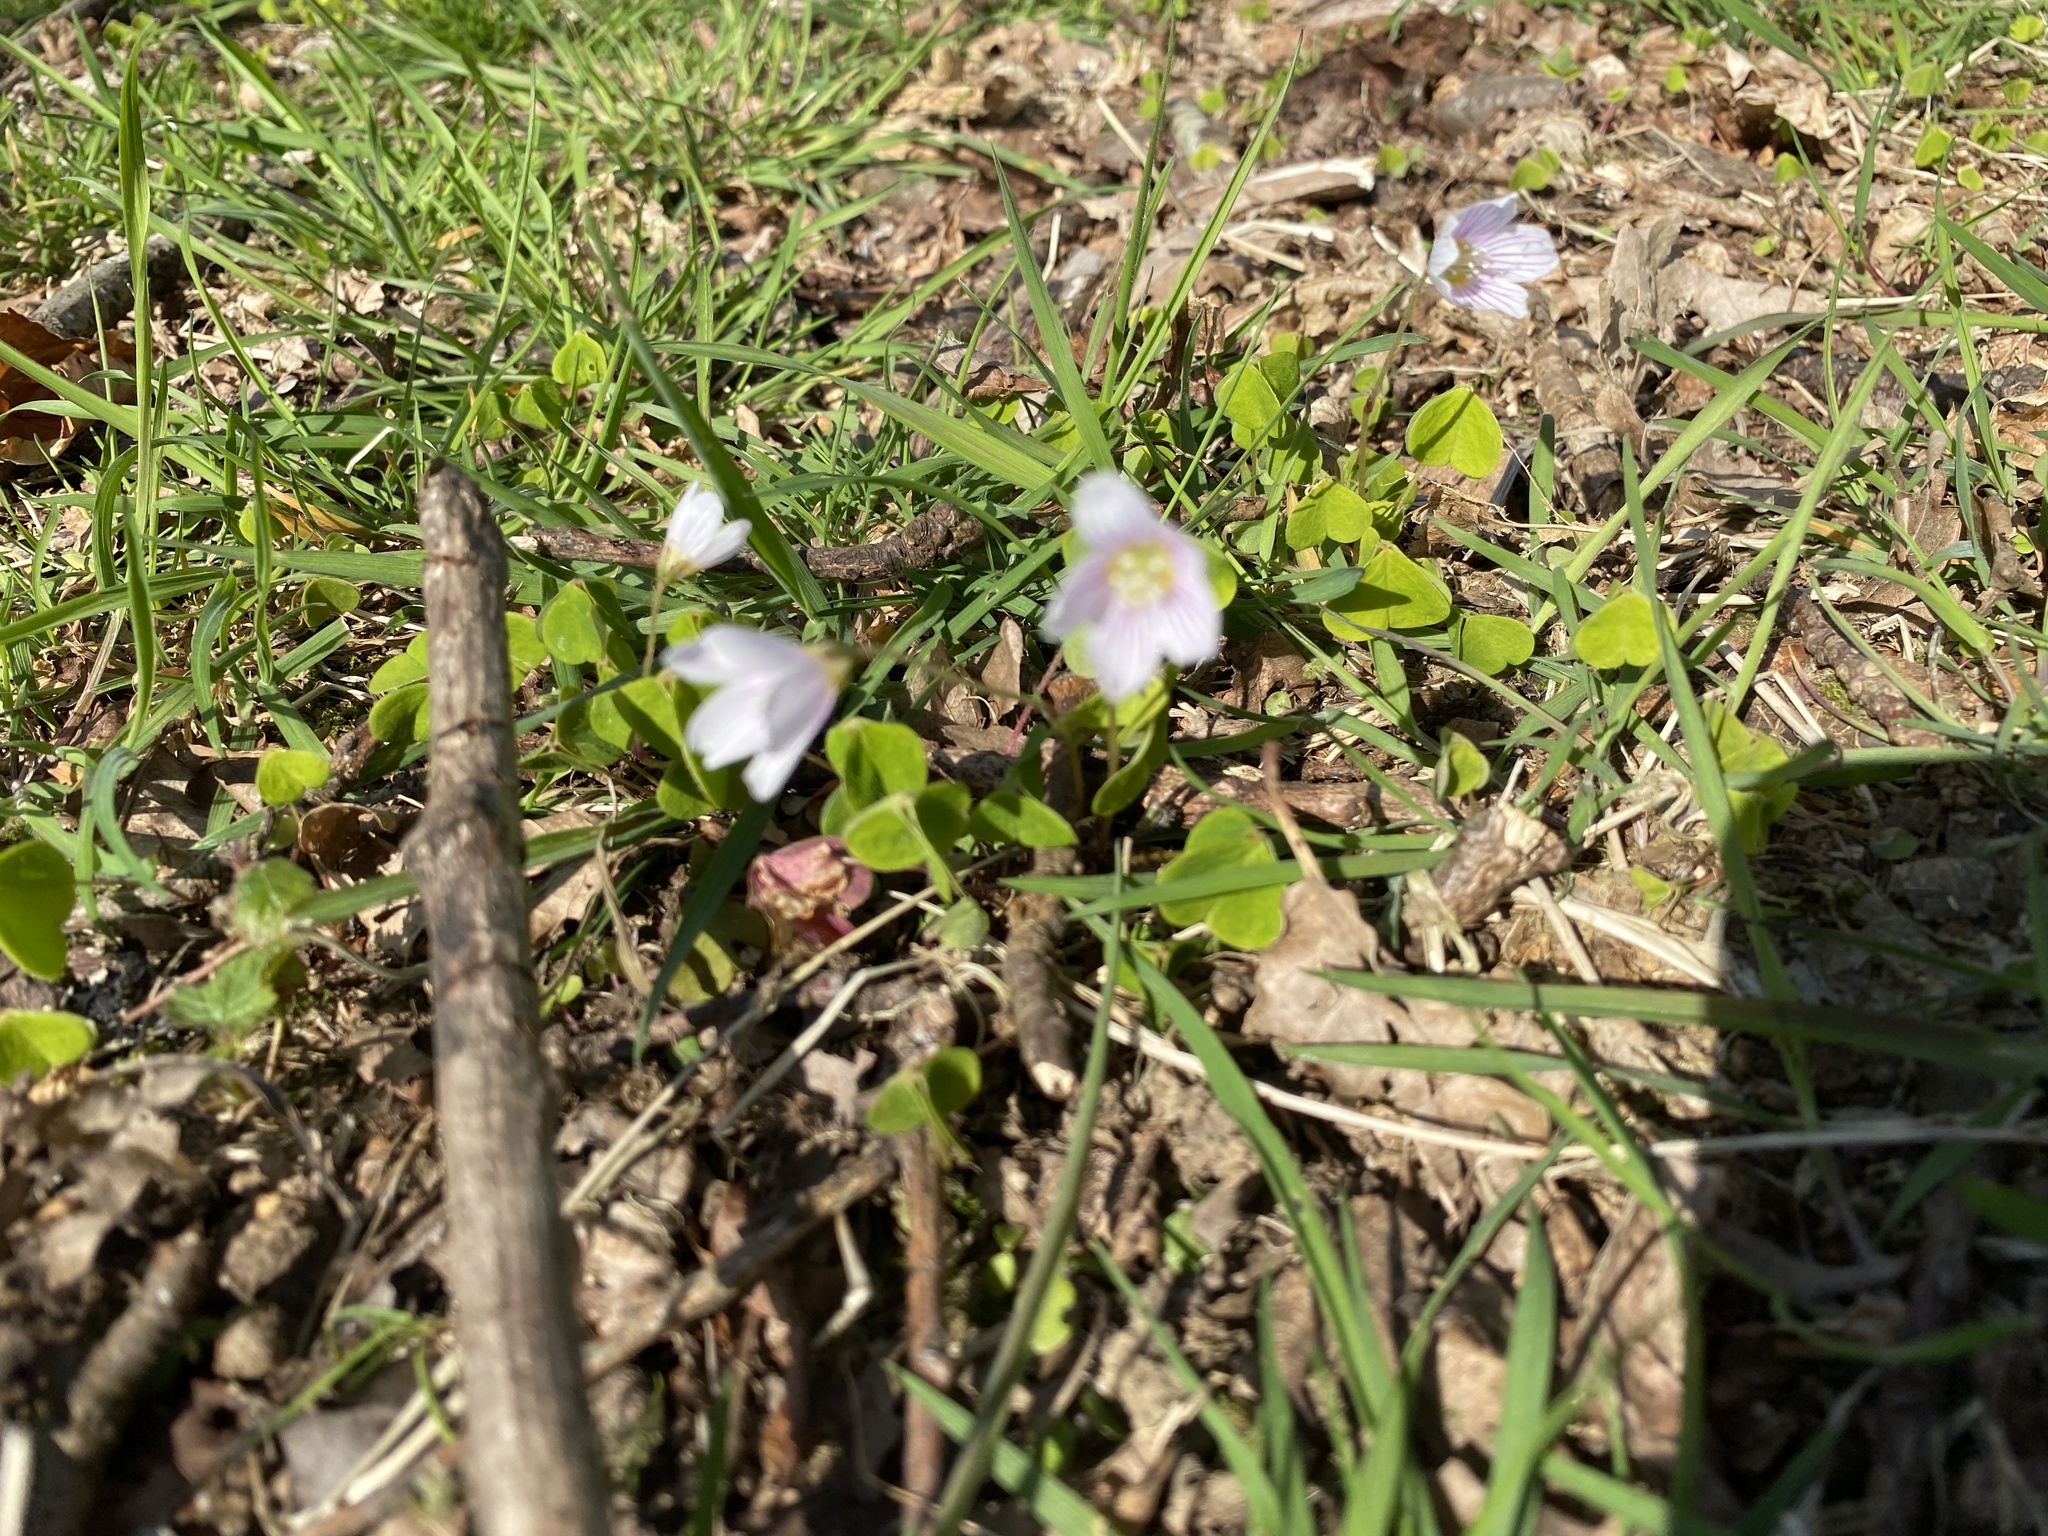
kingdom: Plantae
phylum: Tracheophyta
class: Magnoliopsida
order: Oxalidales
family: Oxalidaceae
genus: Oxalis
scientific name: Oxalis acetosella
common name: Wood-sorrel
